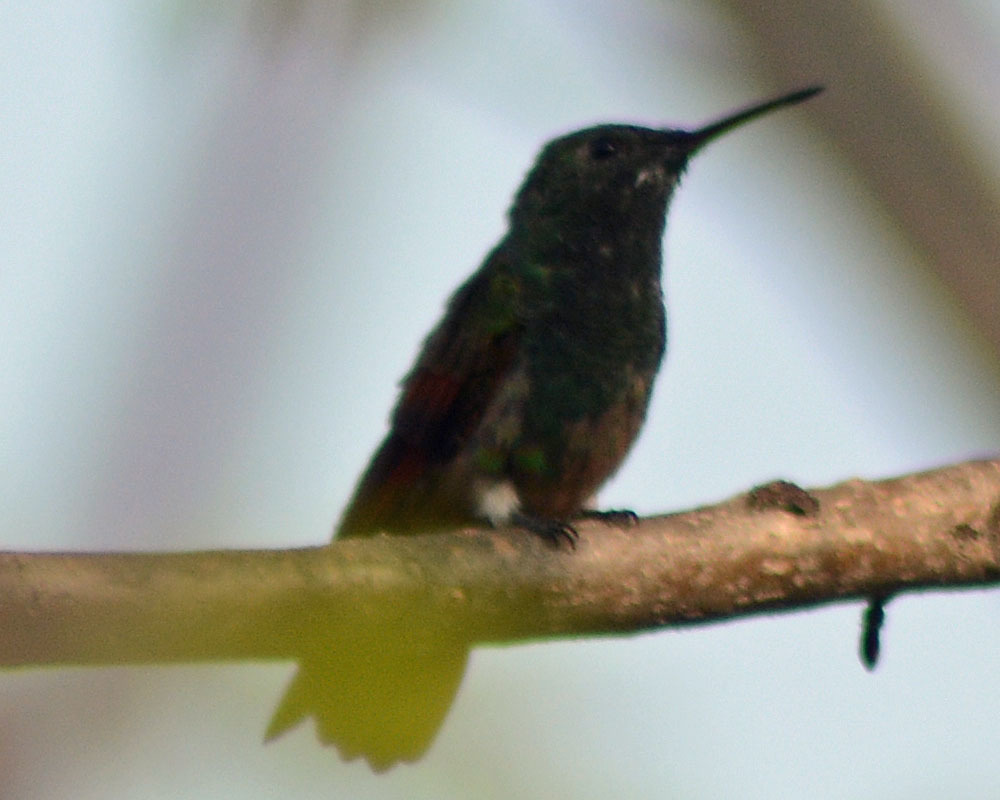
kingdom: Animalia
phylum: Chordata
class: Aves
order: Apodiformes
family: Trochilidae
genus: Saucerottia
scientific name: Saucerottia beryllina
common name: Berylline hummingbird
